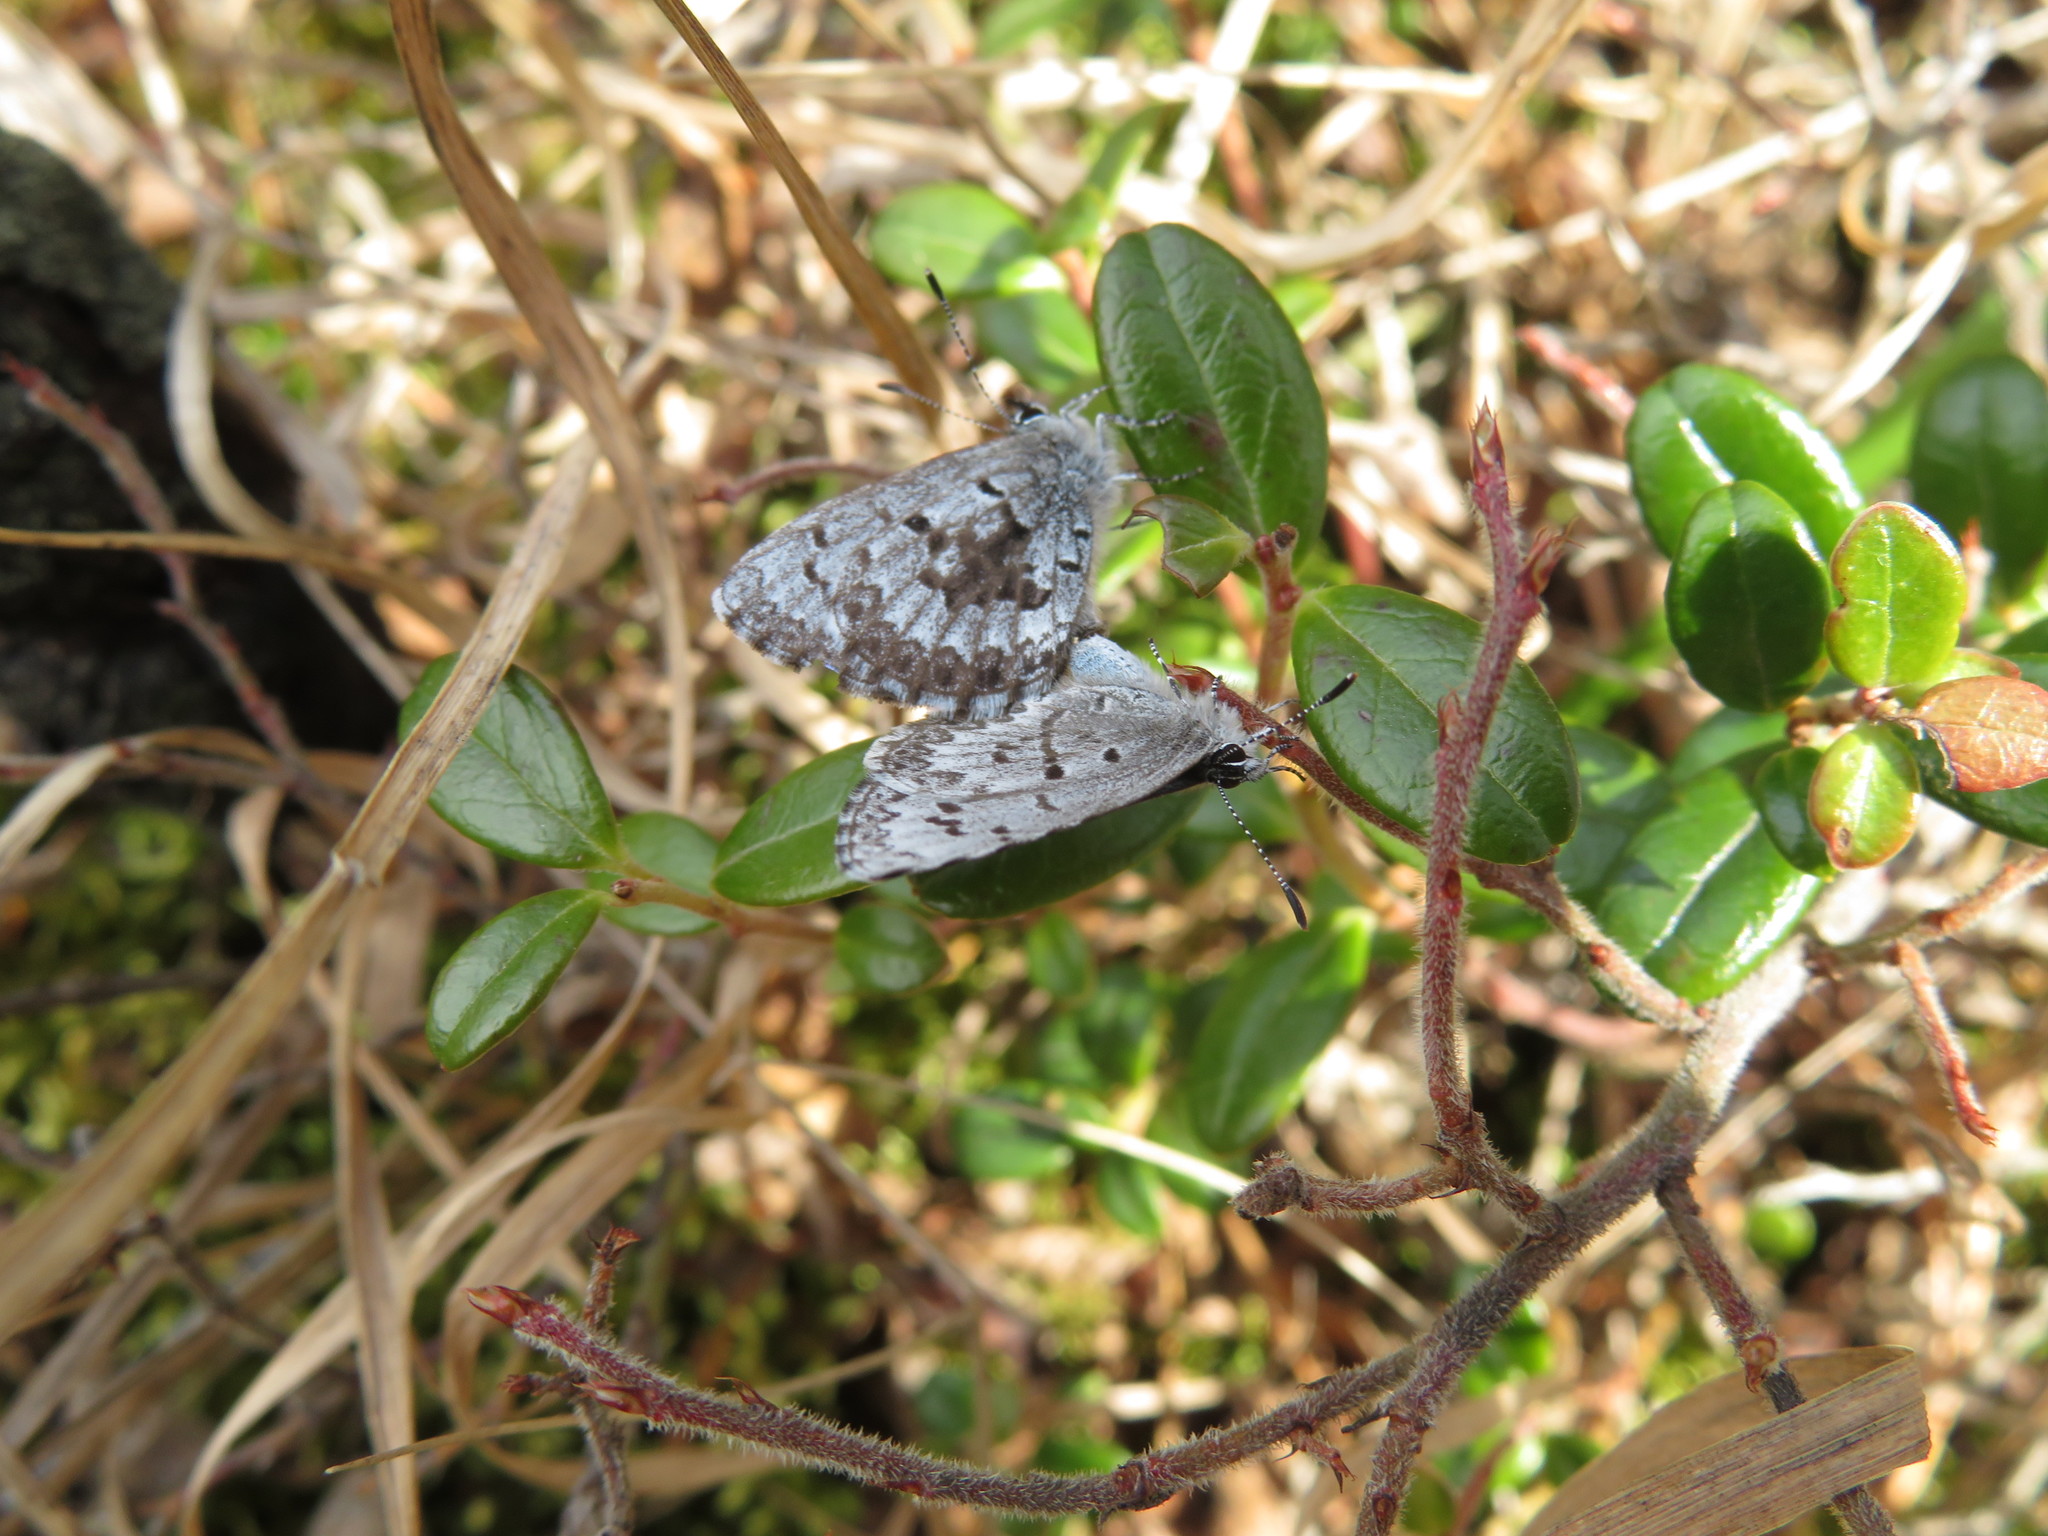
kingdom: Animalia
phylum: Arthropoda
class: Insecta
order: Lepidoptera
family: Lycaenidae
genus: Celastrina
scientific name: Celastrina lucia
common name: Lucia azure
